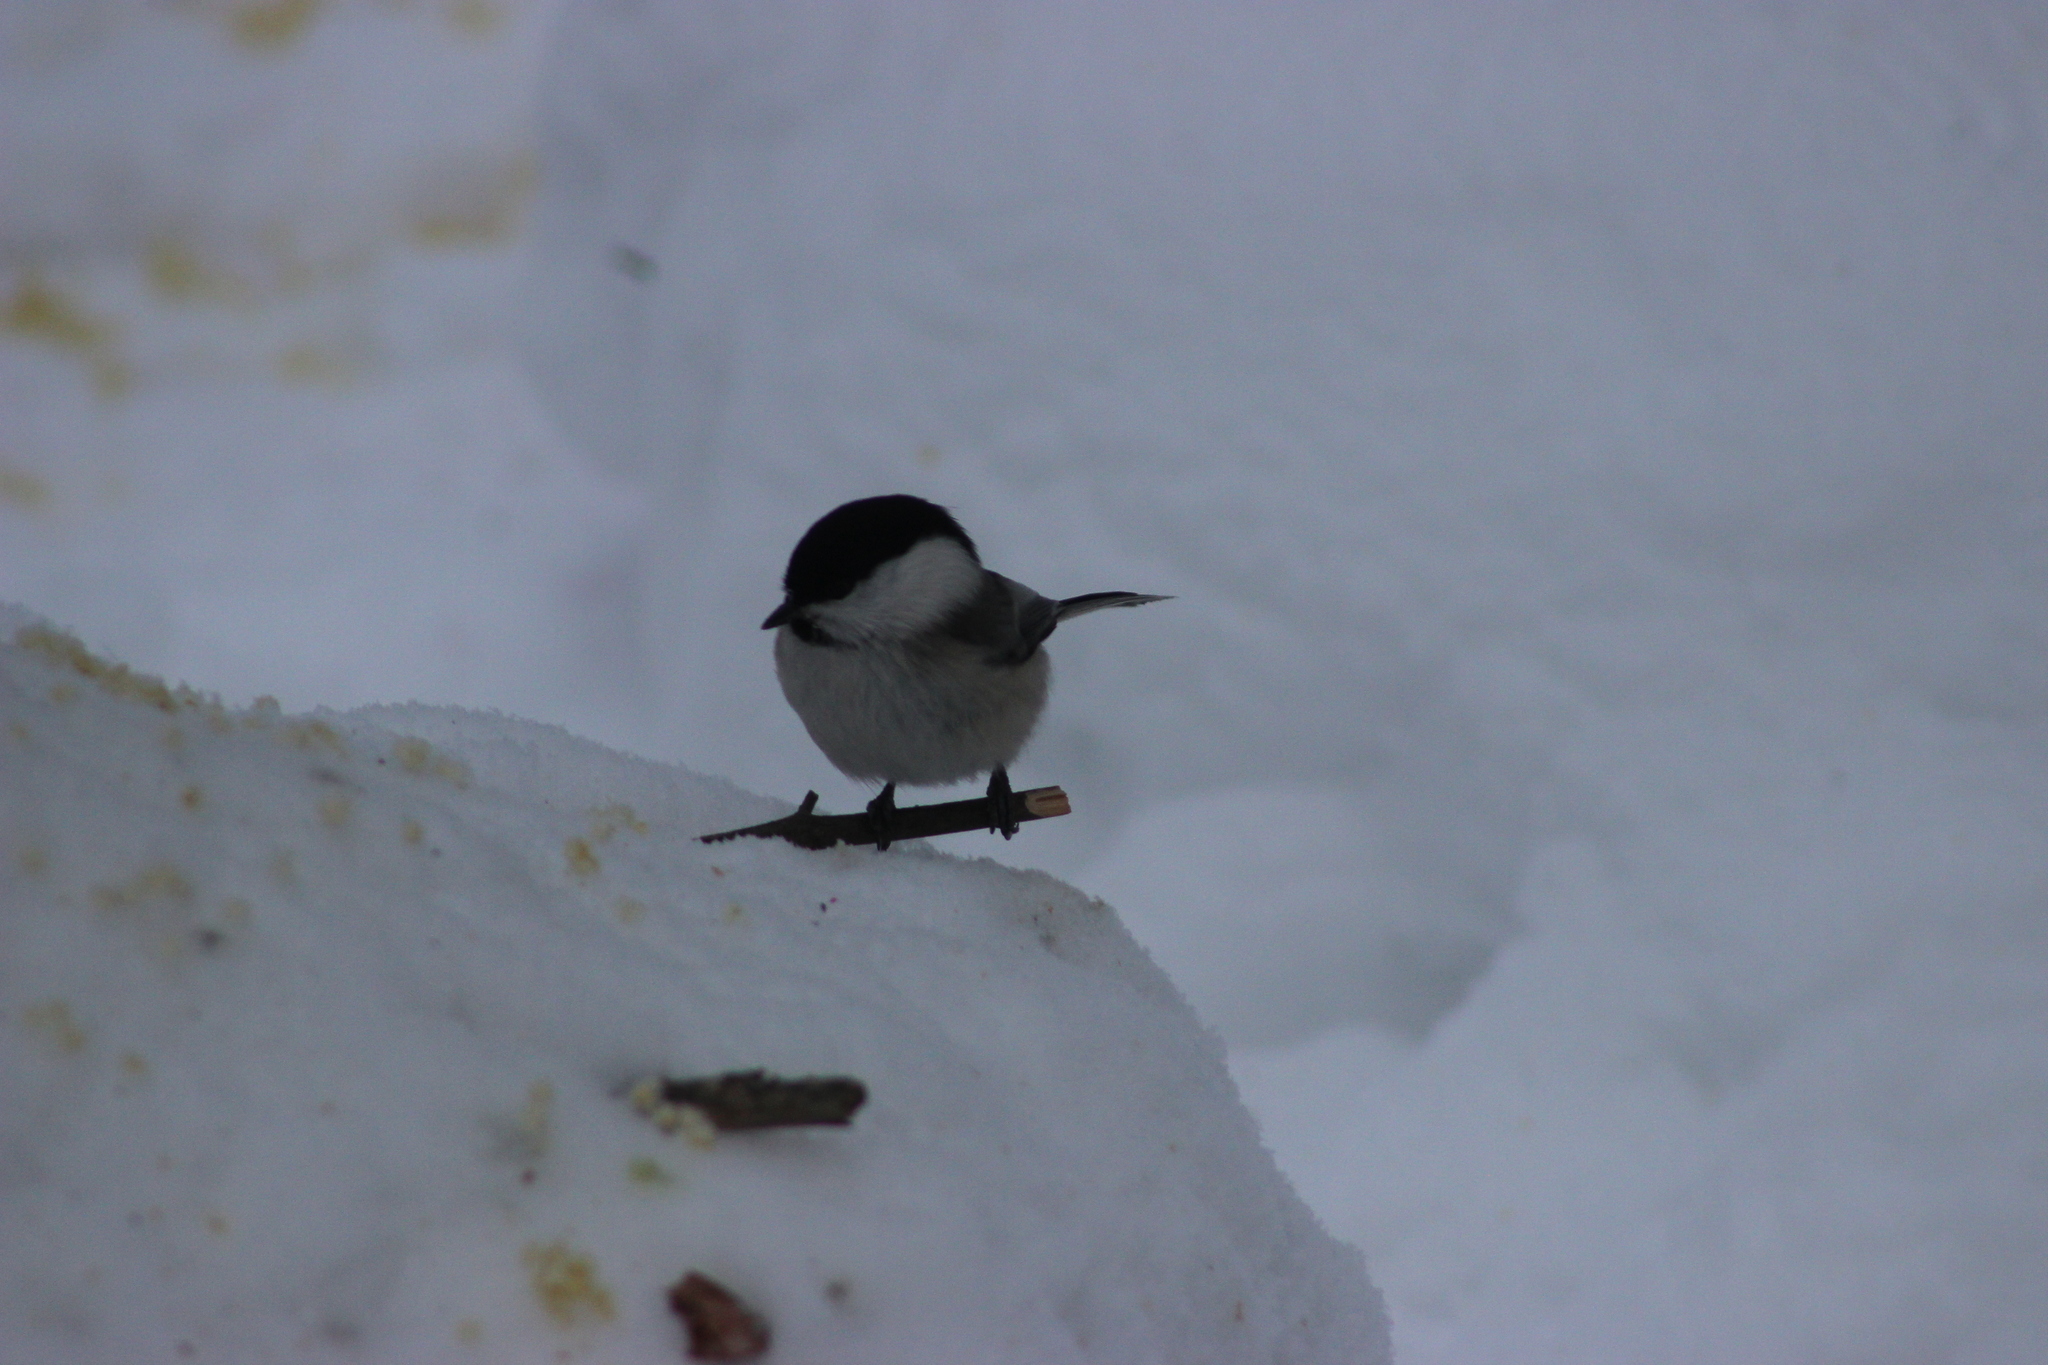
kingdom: Animalia
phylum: Chordata
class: Aves
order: Passeriformes
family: Paridae
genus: Poecile
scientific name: Poecile montanus
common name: Willow tit
